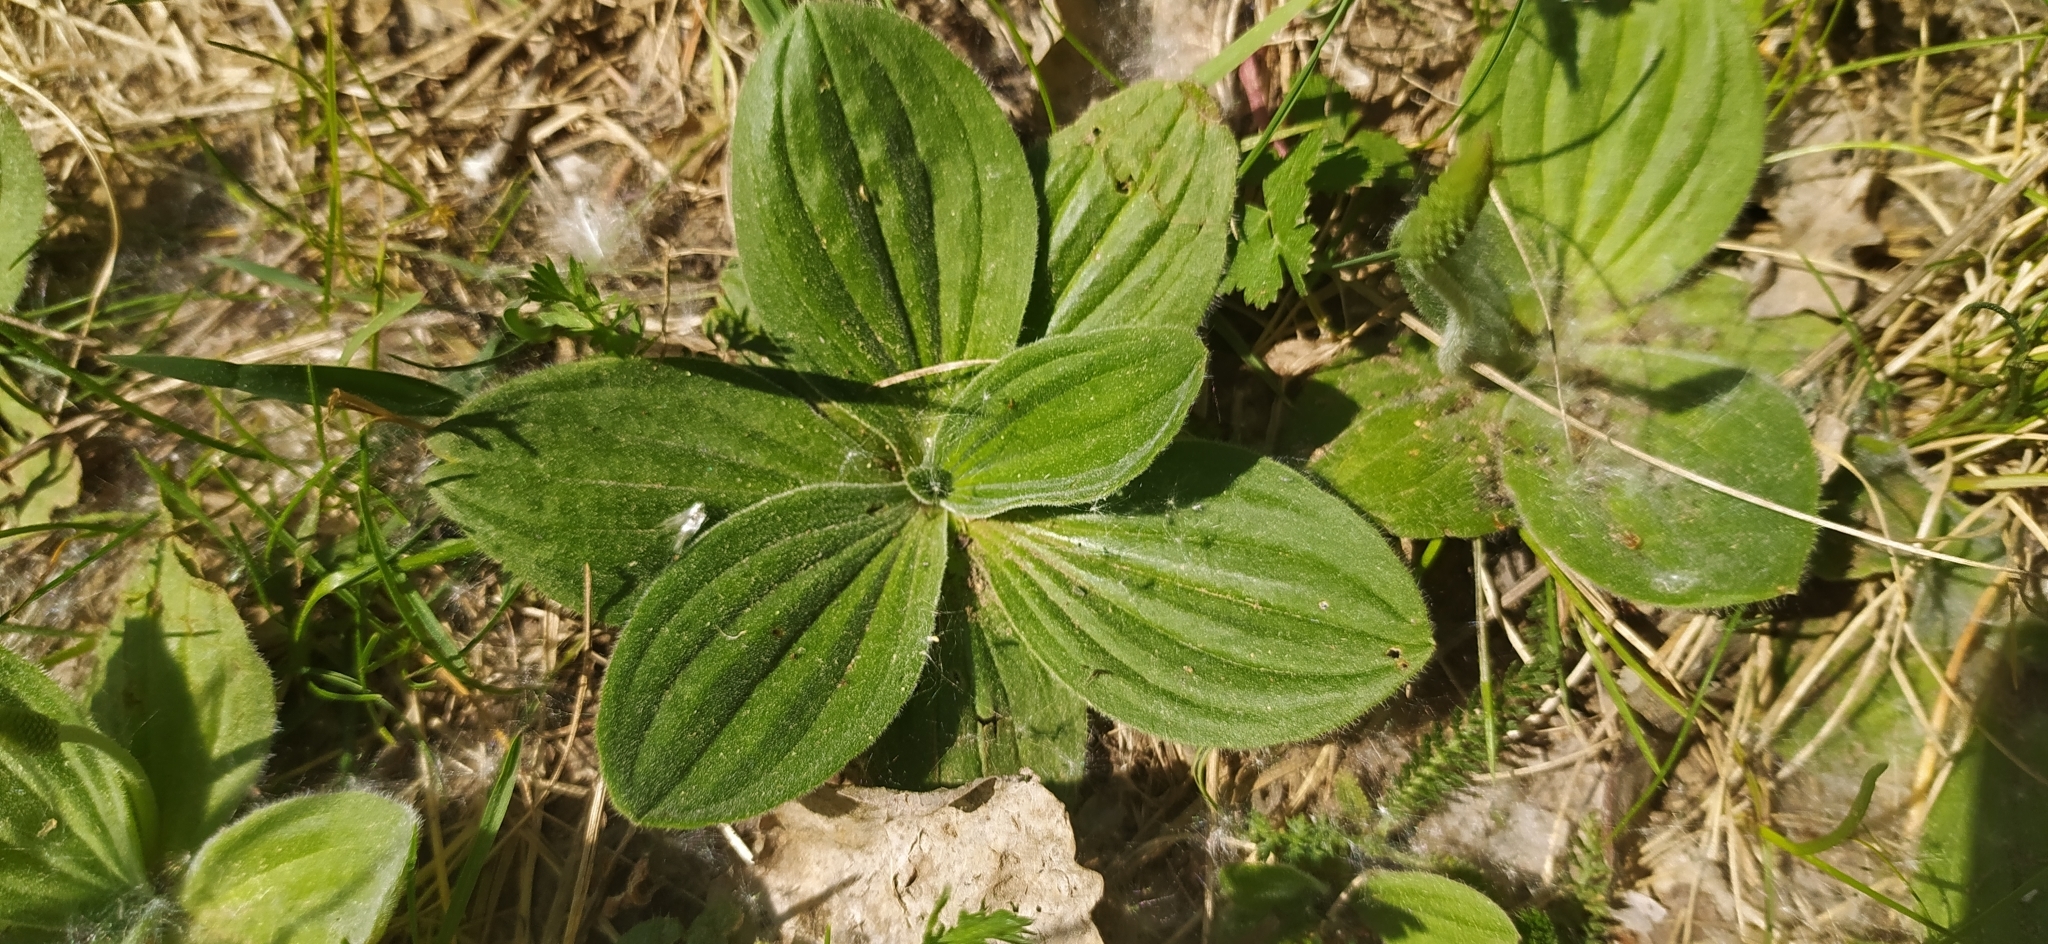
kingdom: Plantae
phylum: Tracheophyta
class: Magnoliopsida
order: Lamiales
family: Plantaginaceae
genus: Plantago
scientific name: Plantago media
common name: Hoary plantain
